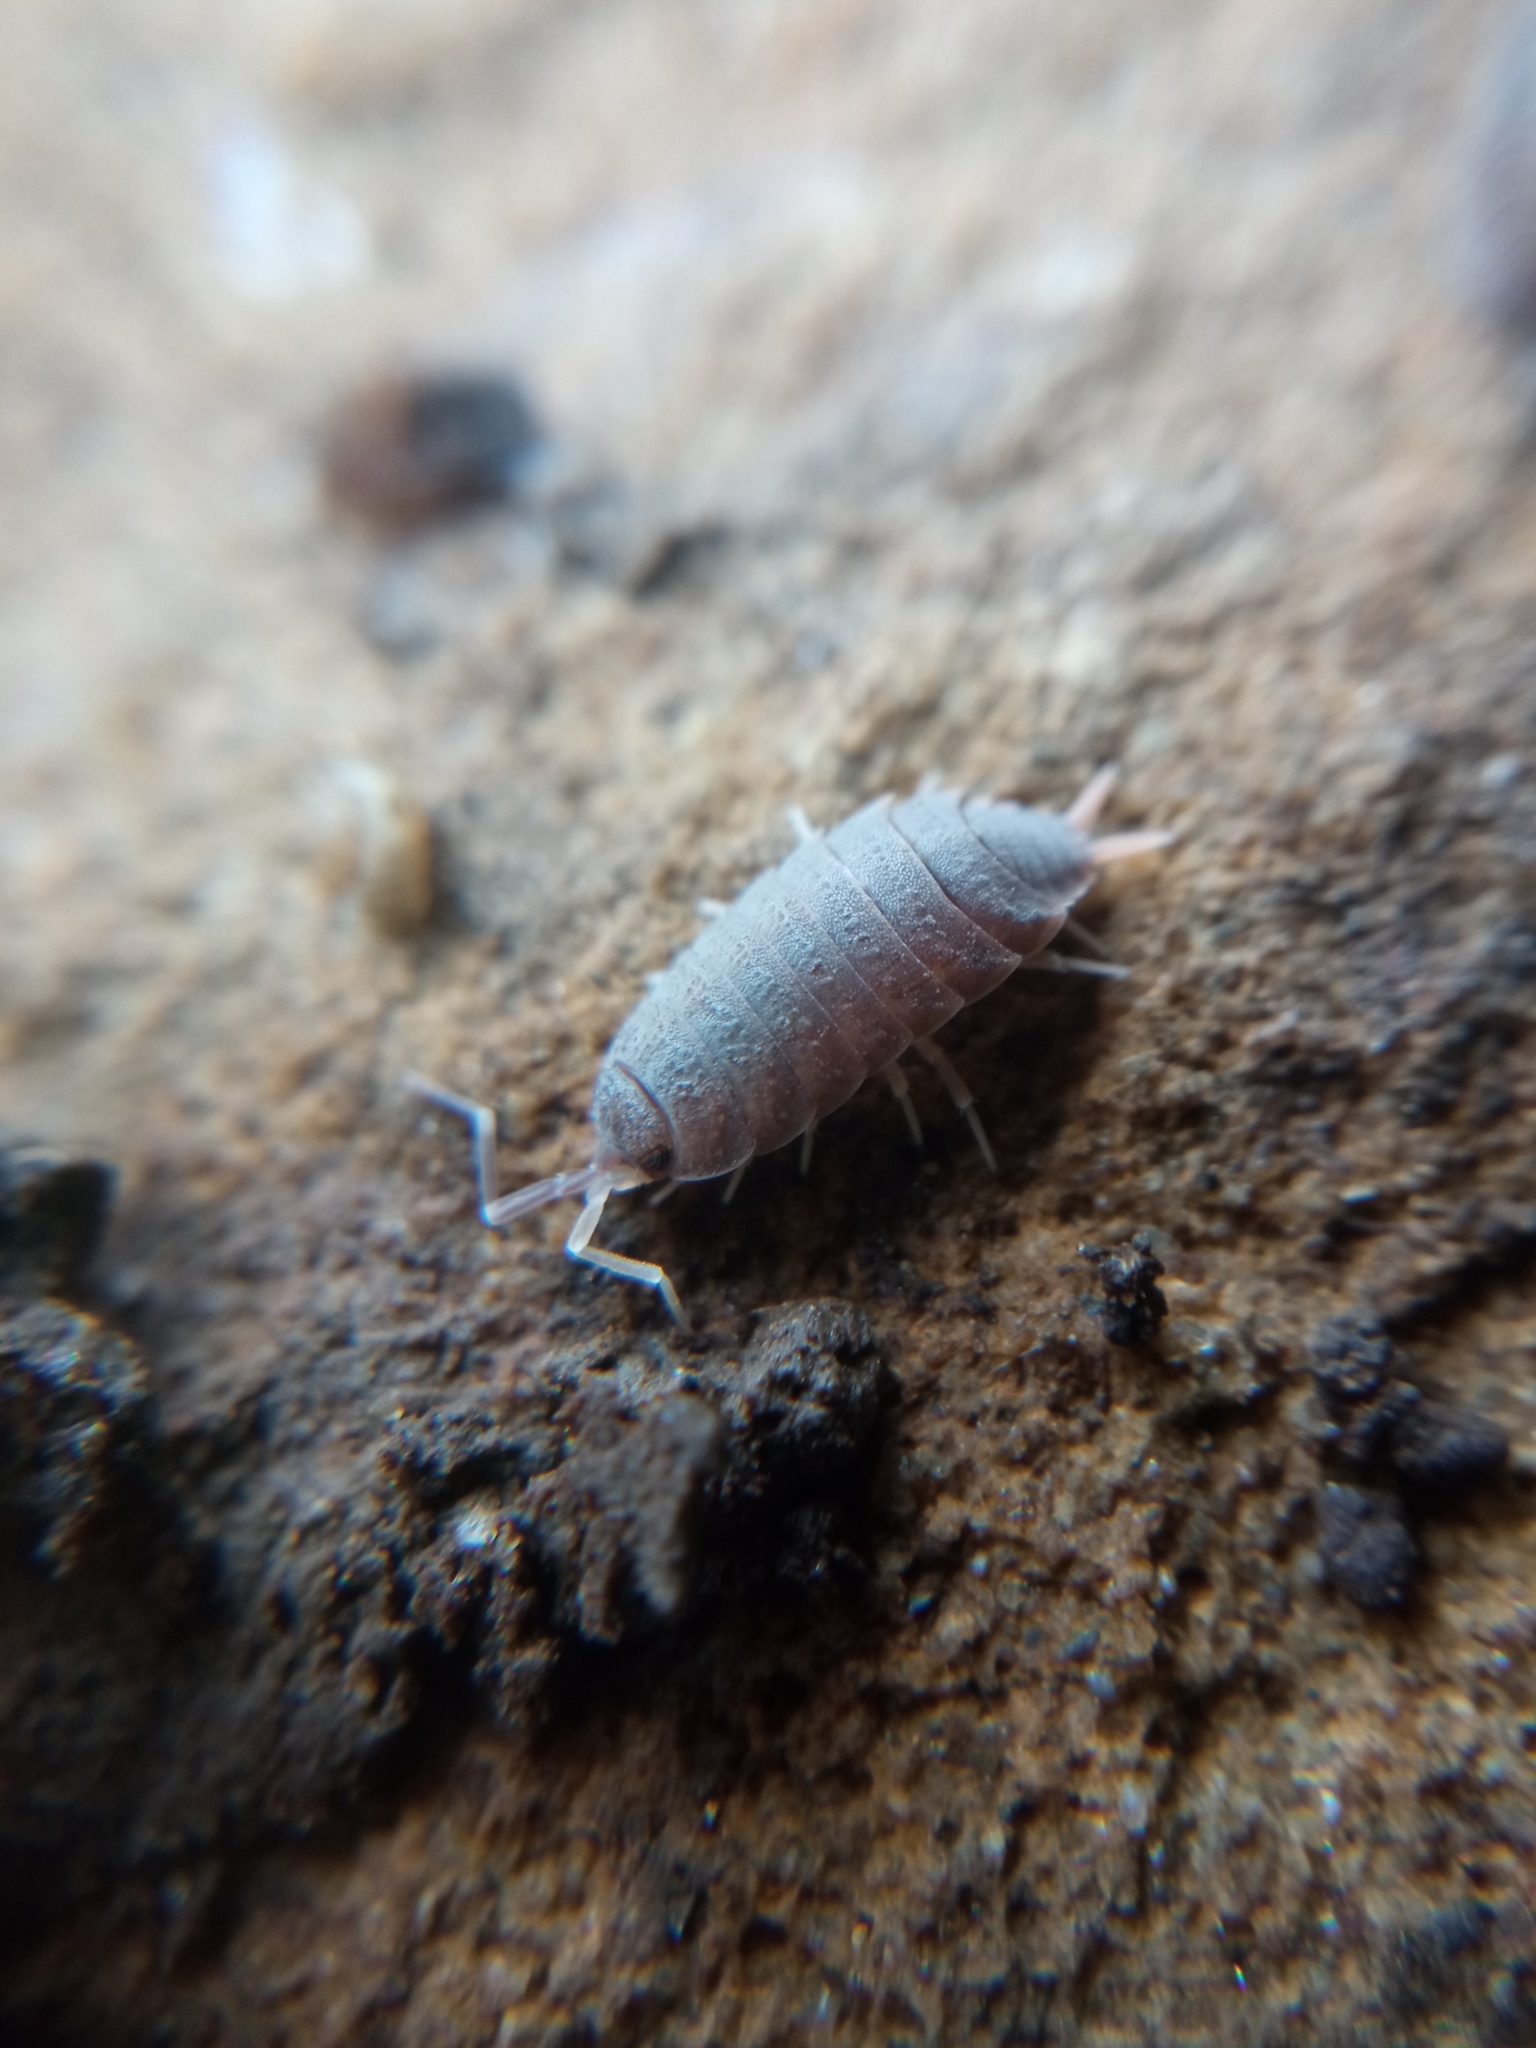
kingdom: Animalia
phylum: Arthropoda
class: Malacostraca
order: Isopoda
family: Porcellionidae
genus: Porcellionides
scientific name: Porcellionides pruinosus
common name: Plum woodlouse
